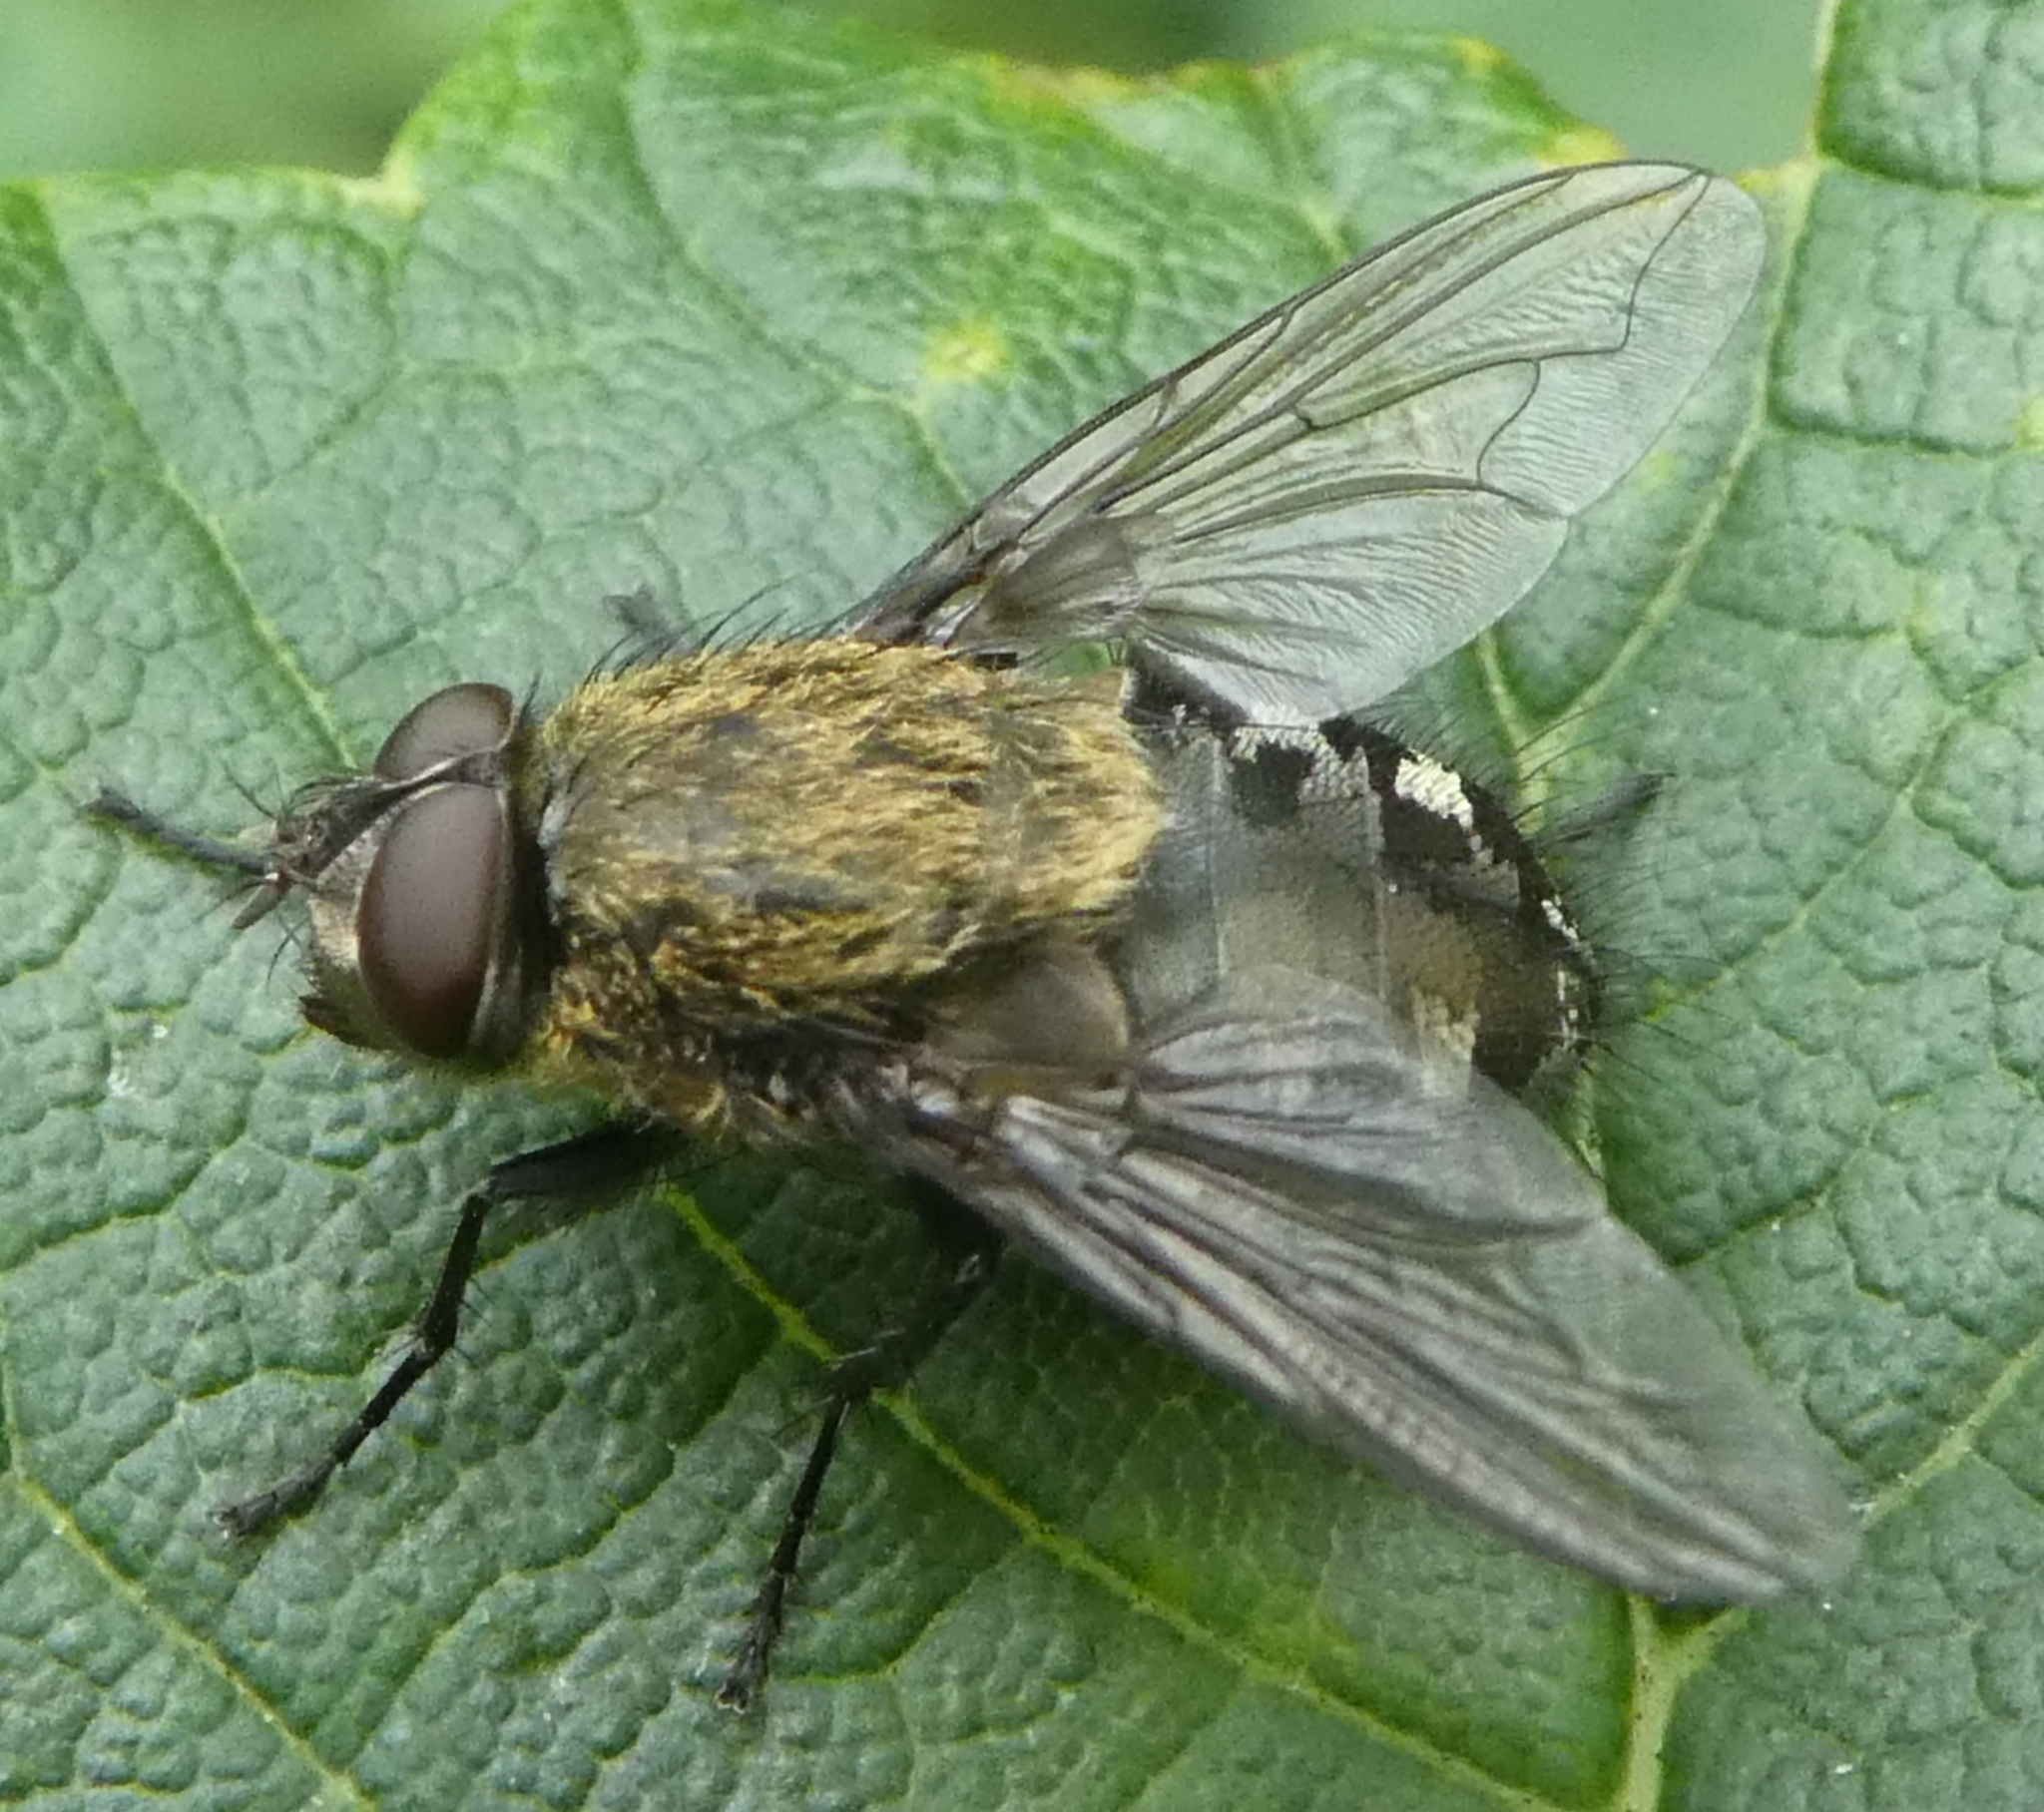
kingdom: Animalia
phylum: Arthropoda
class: Insecta
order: Diptera
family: Polleniidae
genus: Pollenia
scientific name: Pollenia
